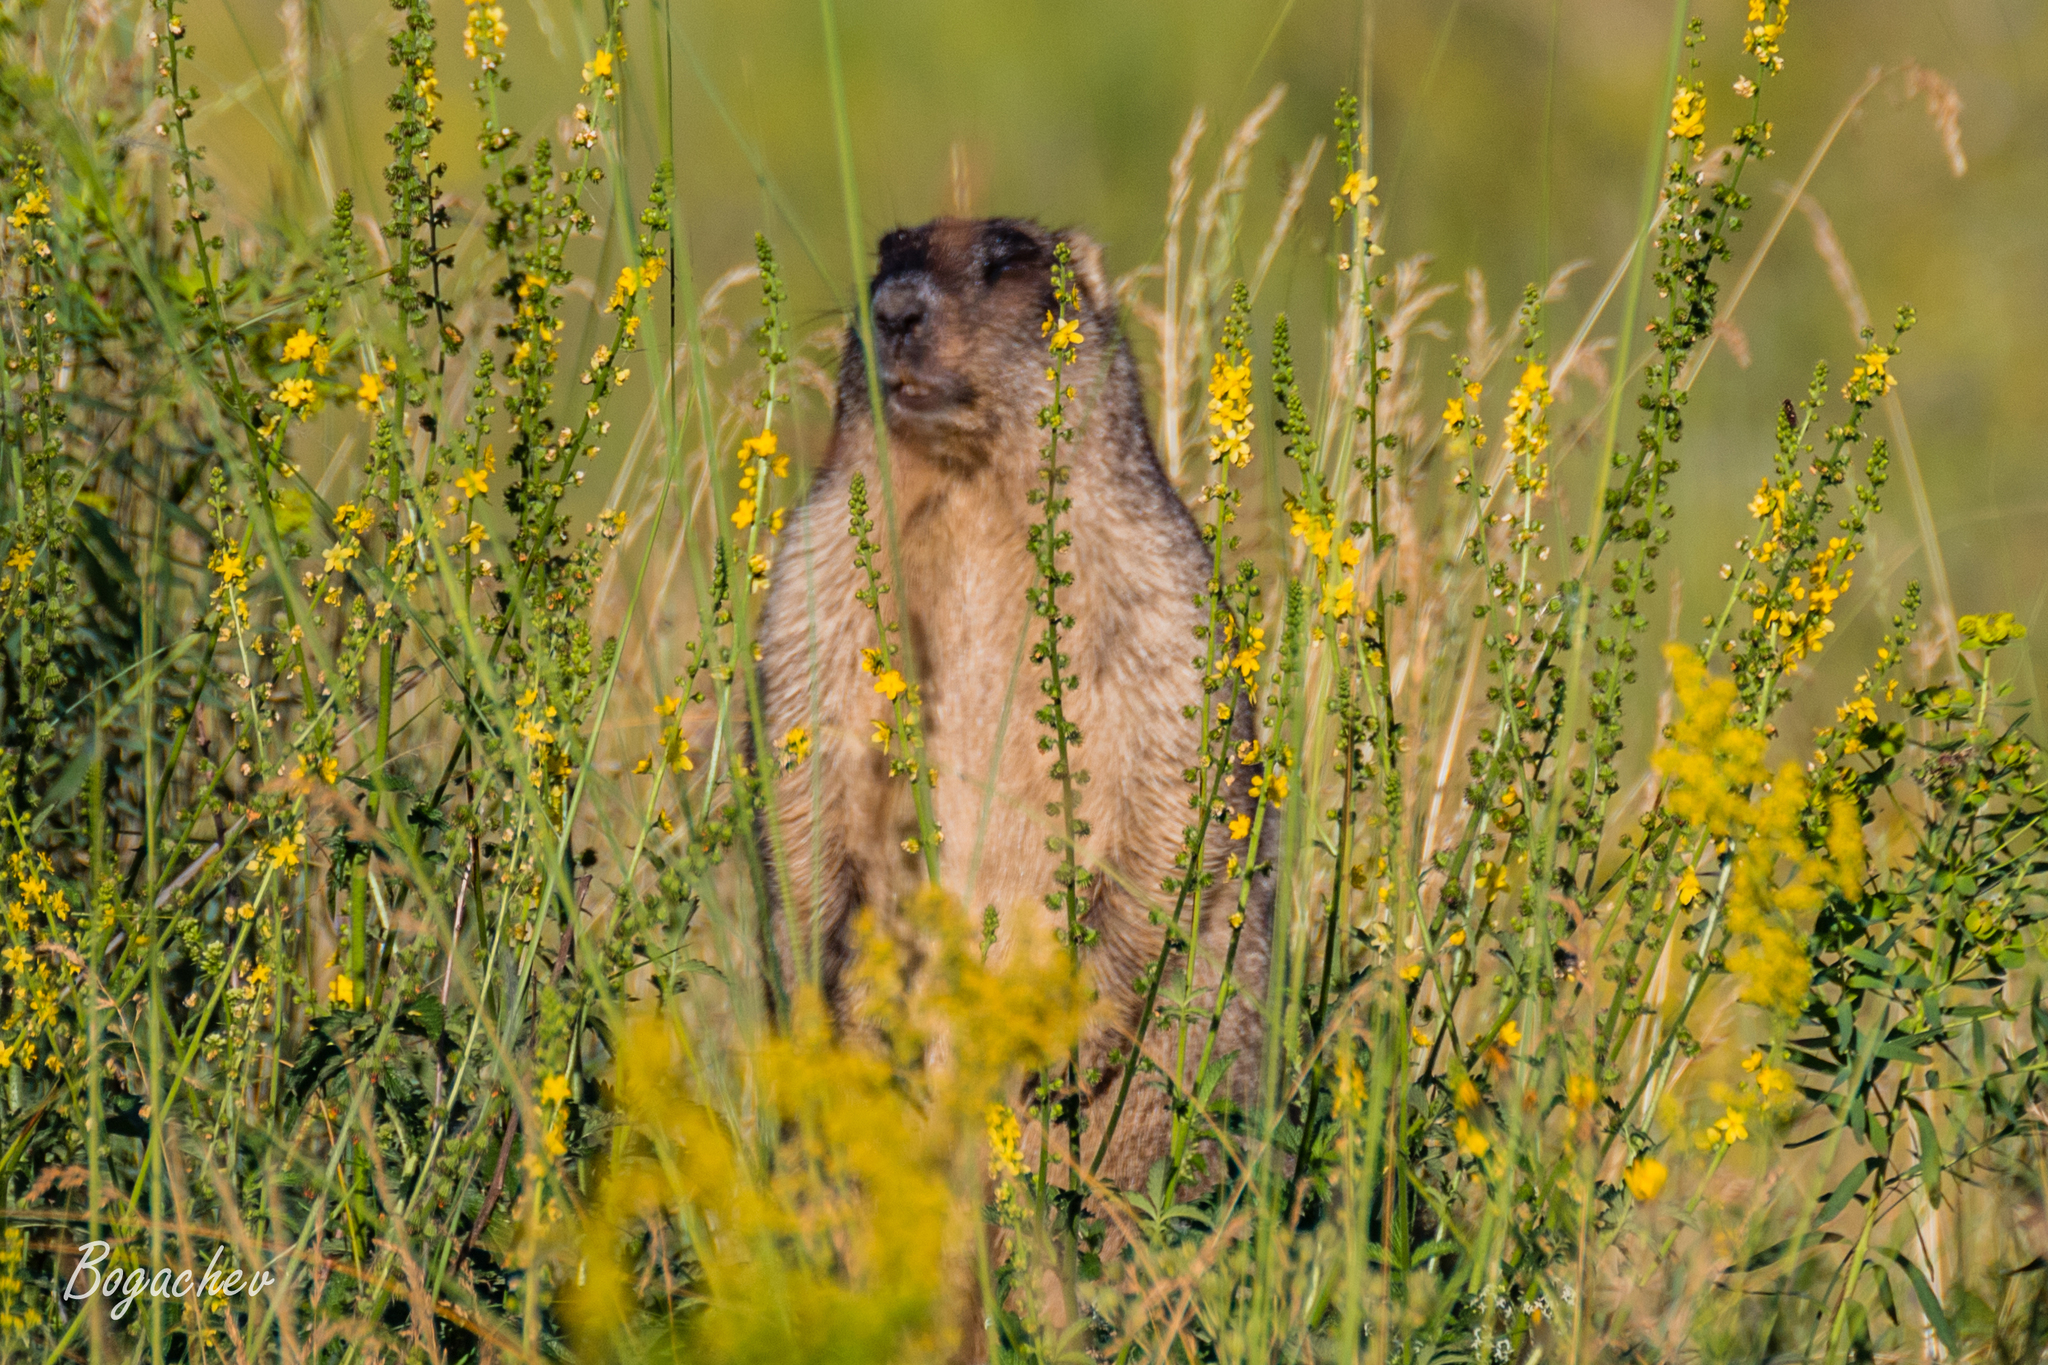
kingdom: Animalia
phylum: Chordata
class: Mammalia
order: Rodentia
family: Sciuridae
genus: Marmota
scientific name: Marmota bobak
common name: Bobak marmot
